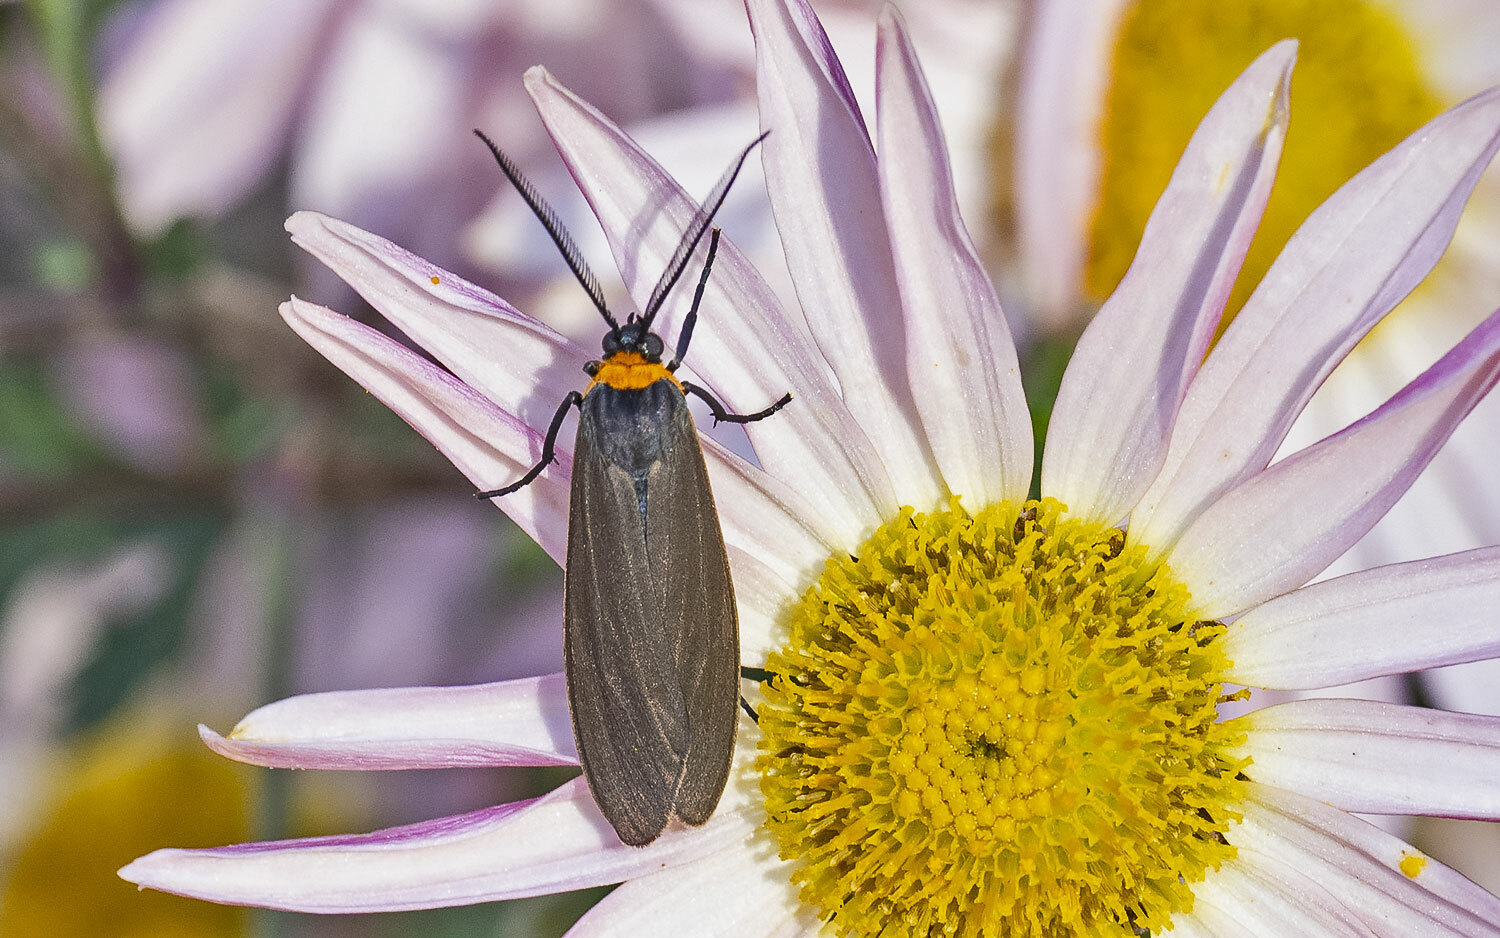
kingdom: Animalia
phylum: Arthropoda
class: Insecta
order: Lepidoptera
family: Erebidae
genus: Cisseps
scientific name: Cisseps fulvicollis
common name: Yellow-collared scape moth
